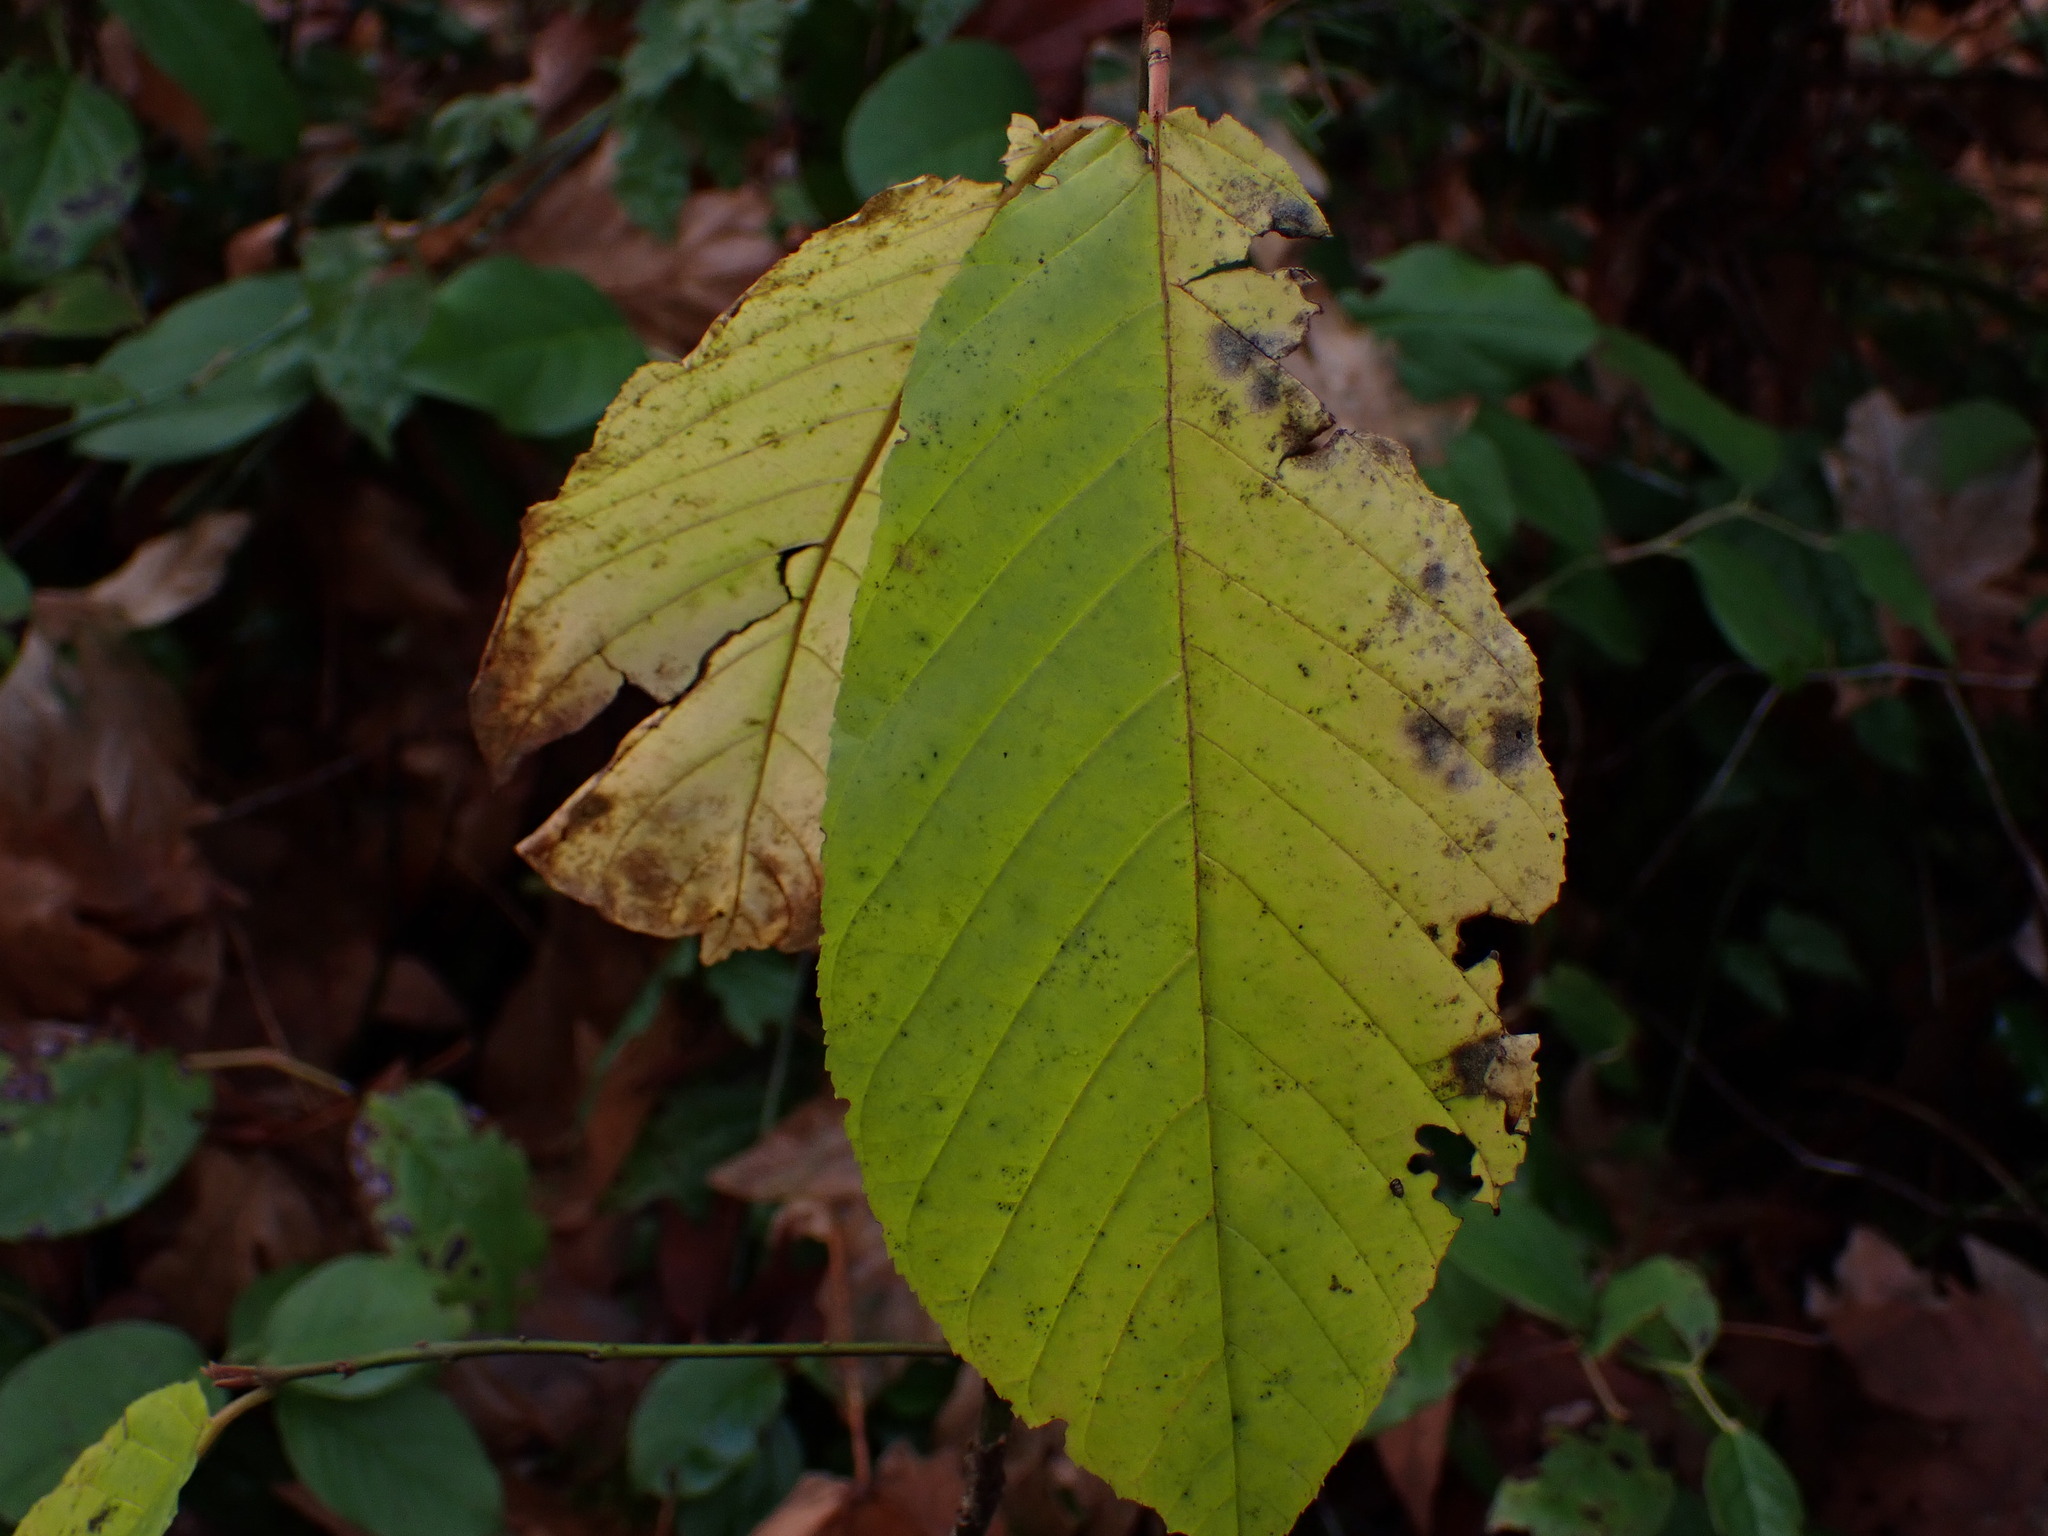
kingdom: Plantae
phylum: Tracheophyta
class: Magnoliopsida
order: Rosales
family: Rhamnaceae
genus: Frangula
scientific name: Frangula purshiana
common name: Cascara buckthorn
